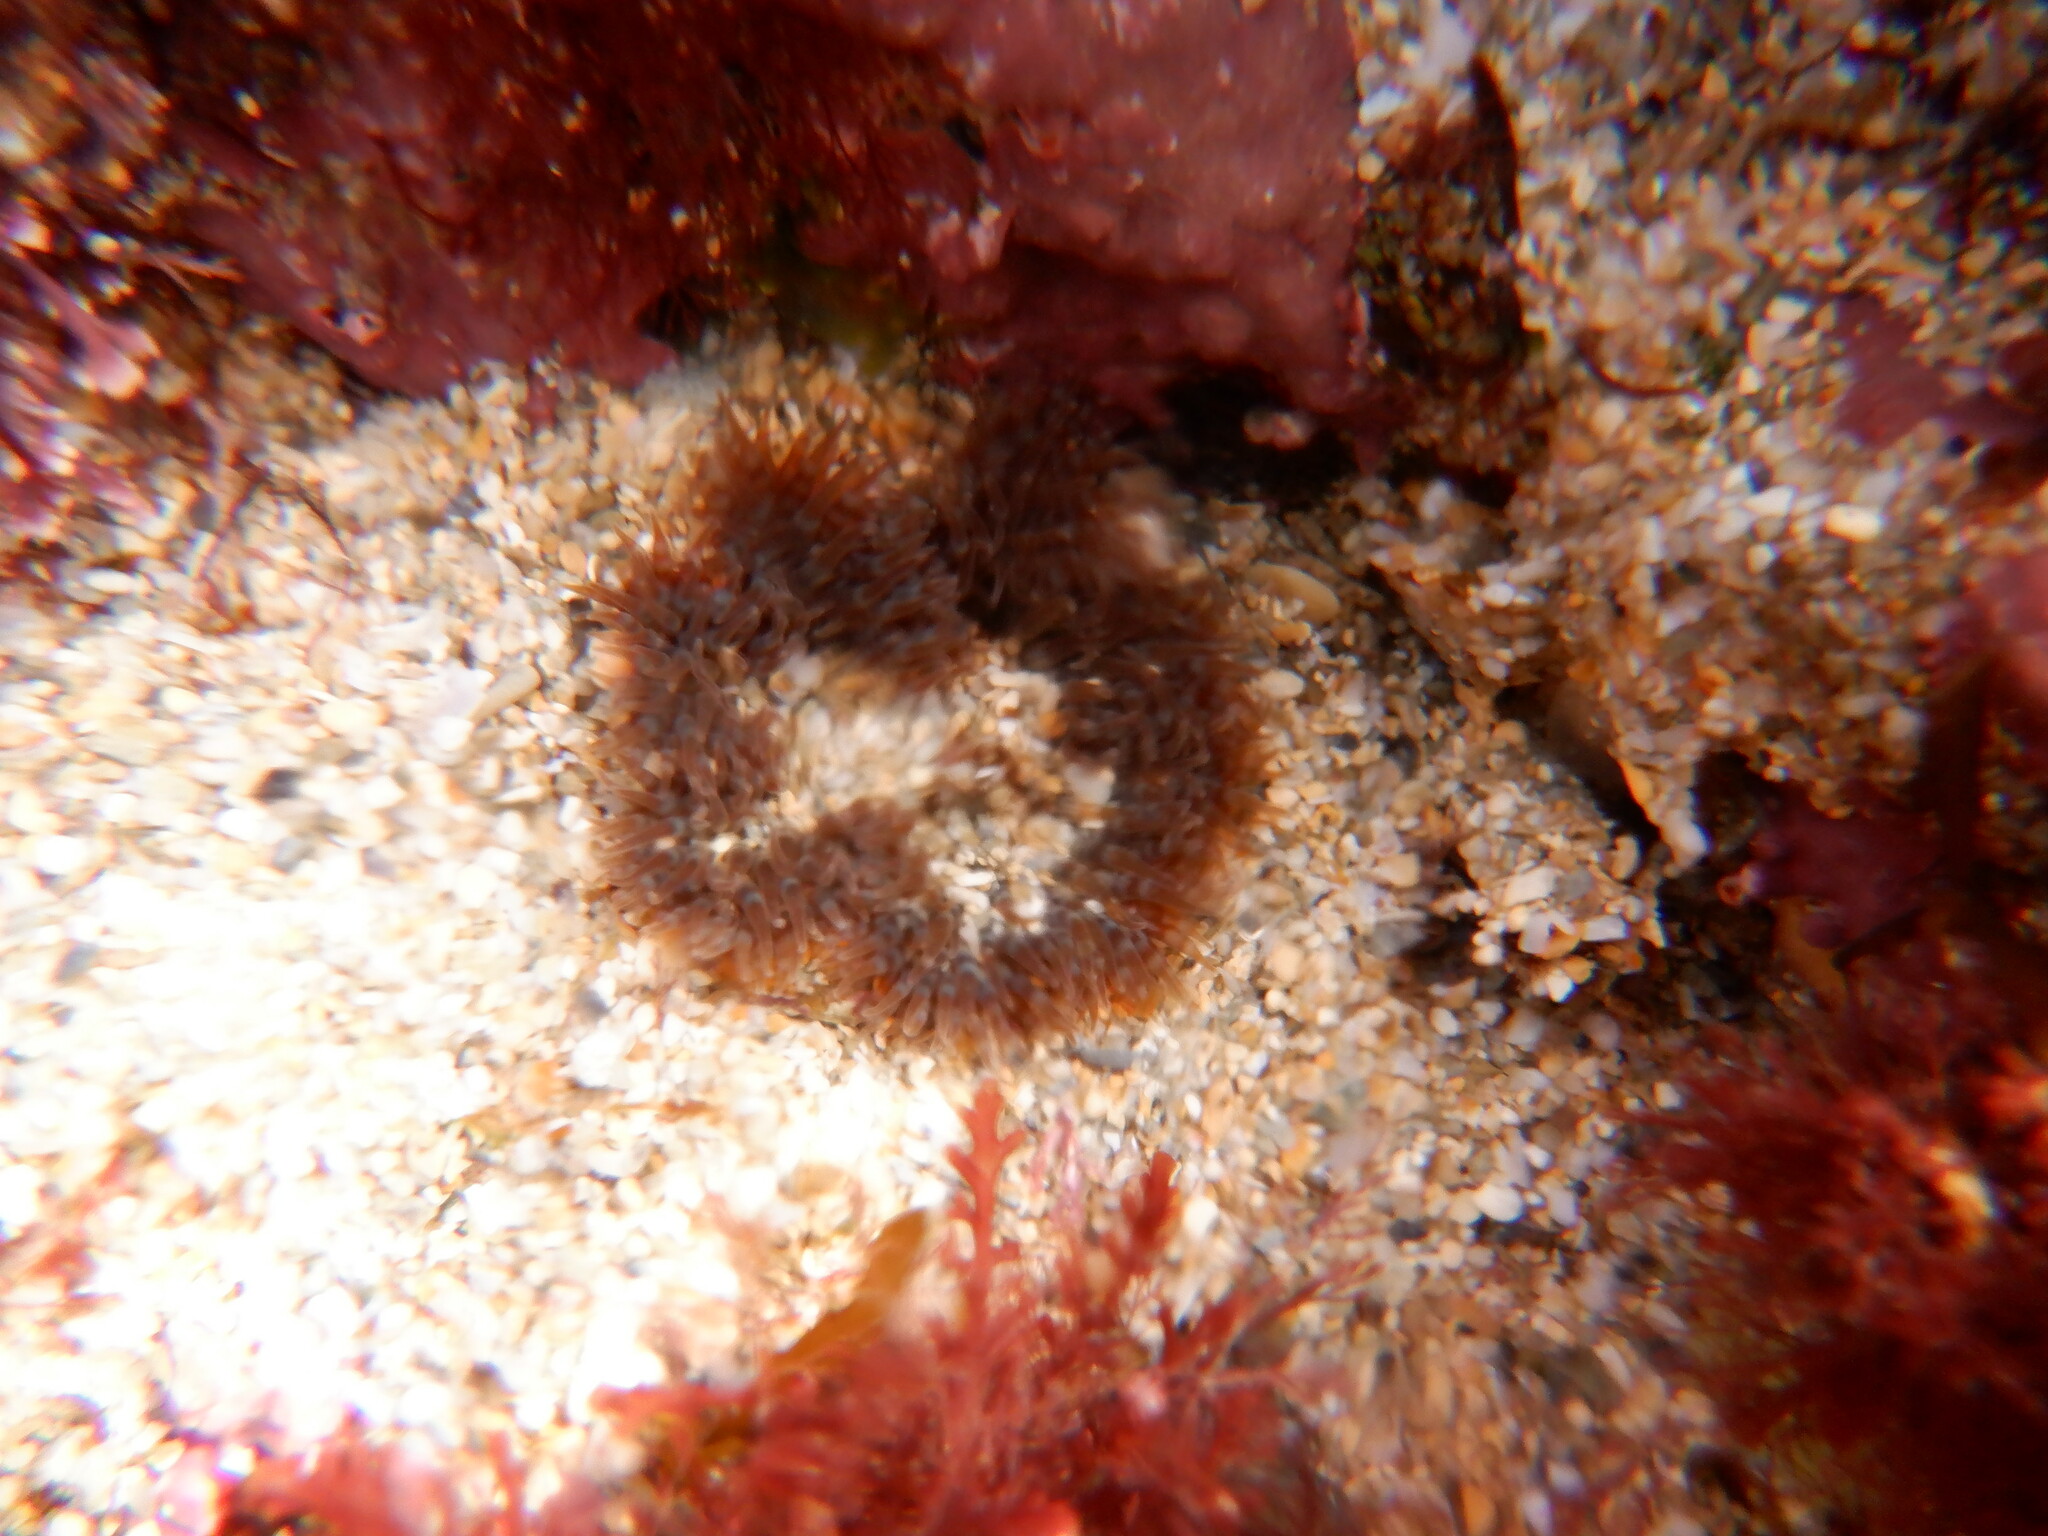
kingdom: Animalia
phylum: Cnidaria
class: Anthozoa
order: Actiniaria
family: Sagartiidae
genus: Cereus
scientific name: Cereus pedunculatus
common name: Daisy anemone
